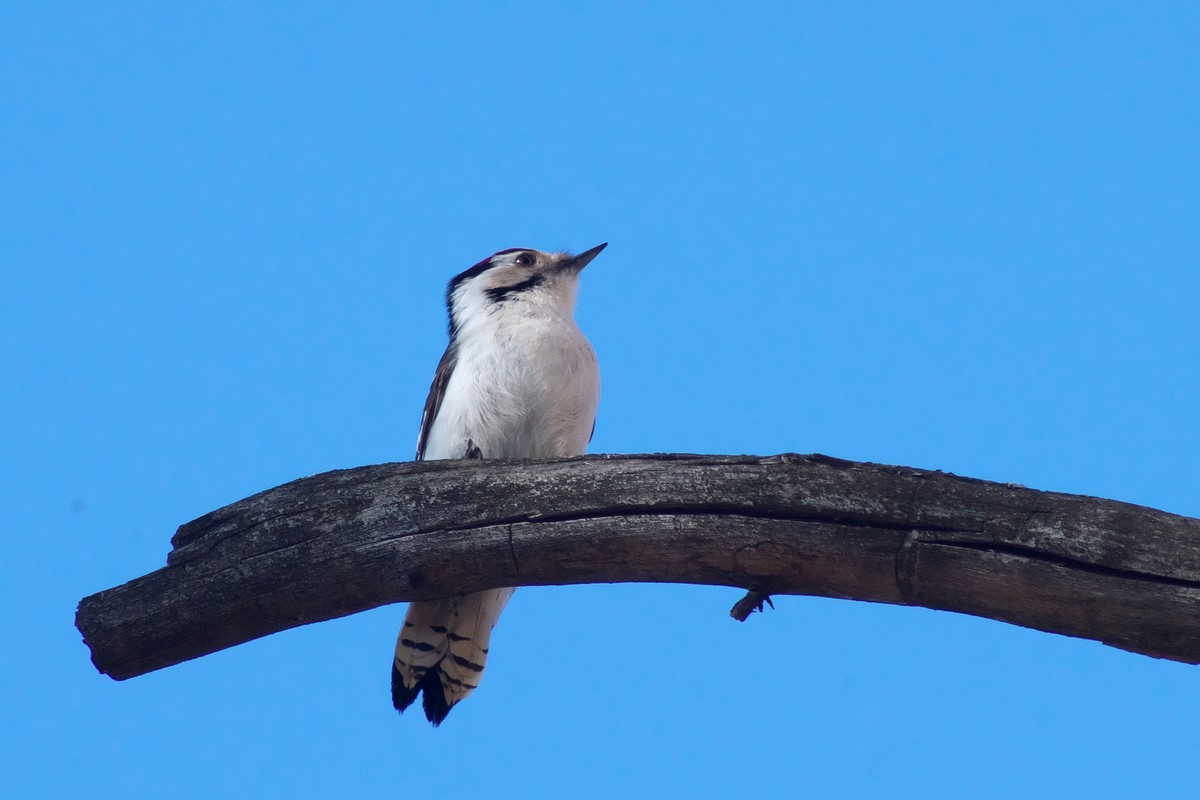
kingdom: Animalia
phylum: Chordata
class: Aves
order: Piciformes
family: Picidae
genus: Dryobates
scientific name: Dryobates minor
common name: Lesser spotted woodpecker
